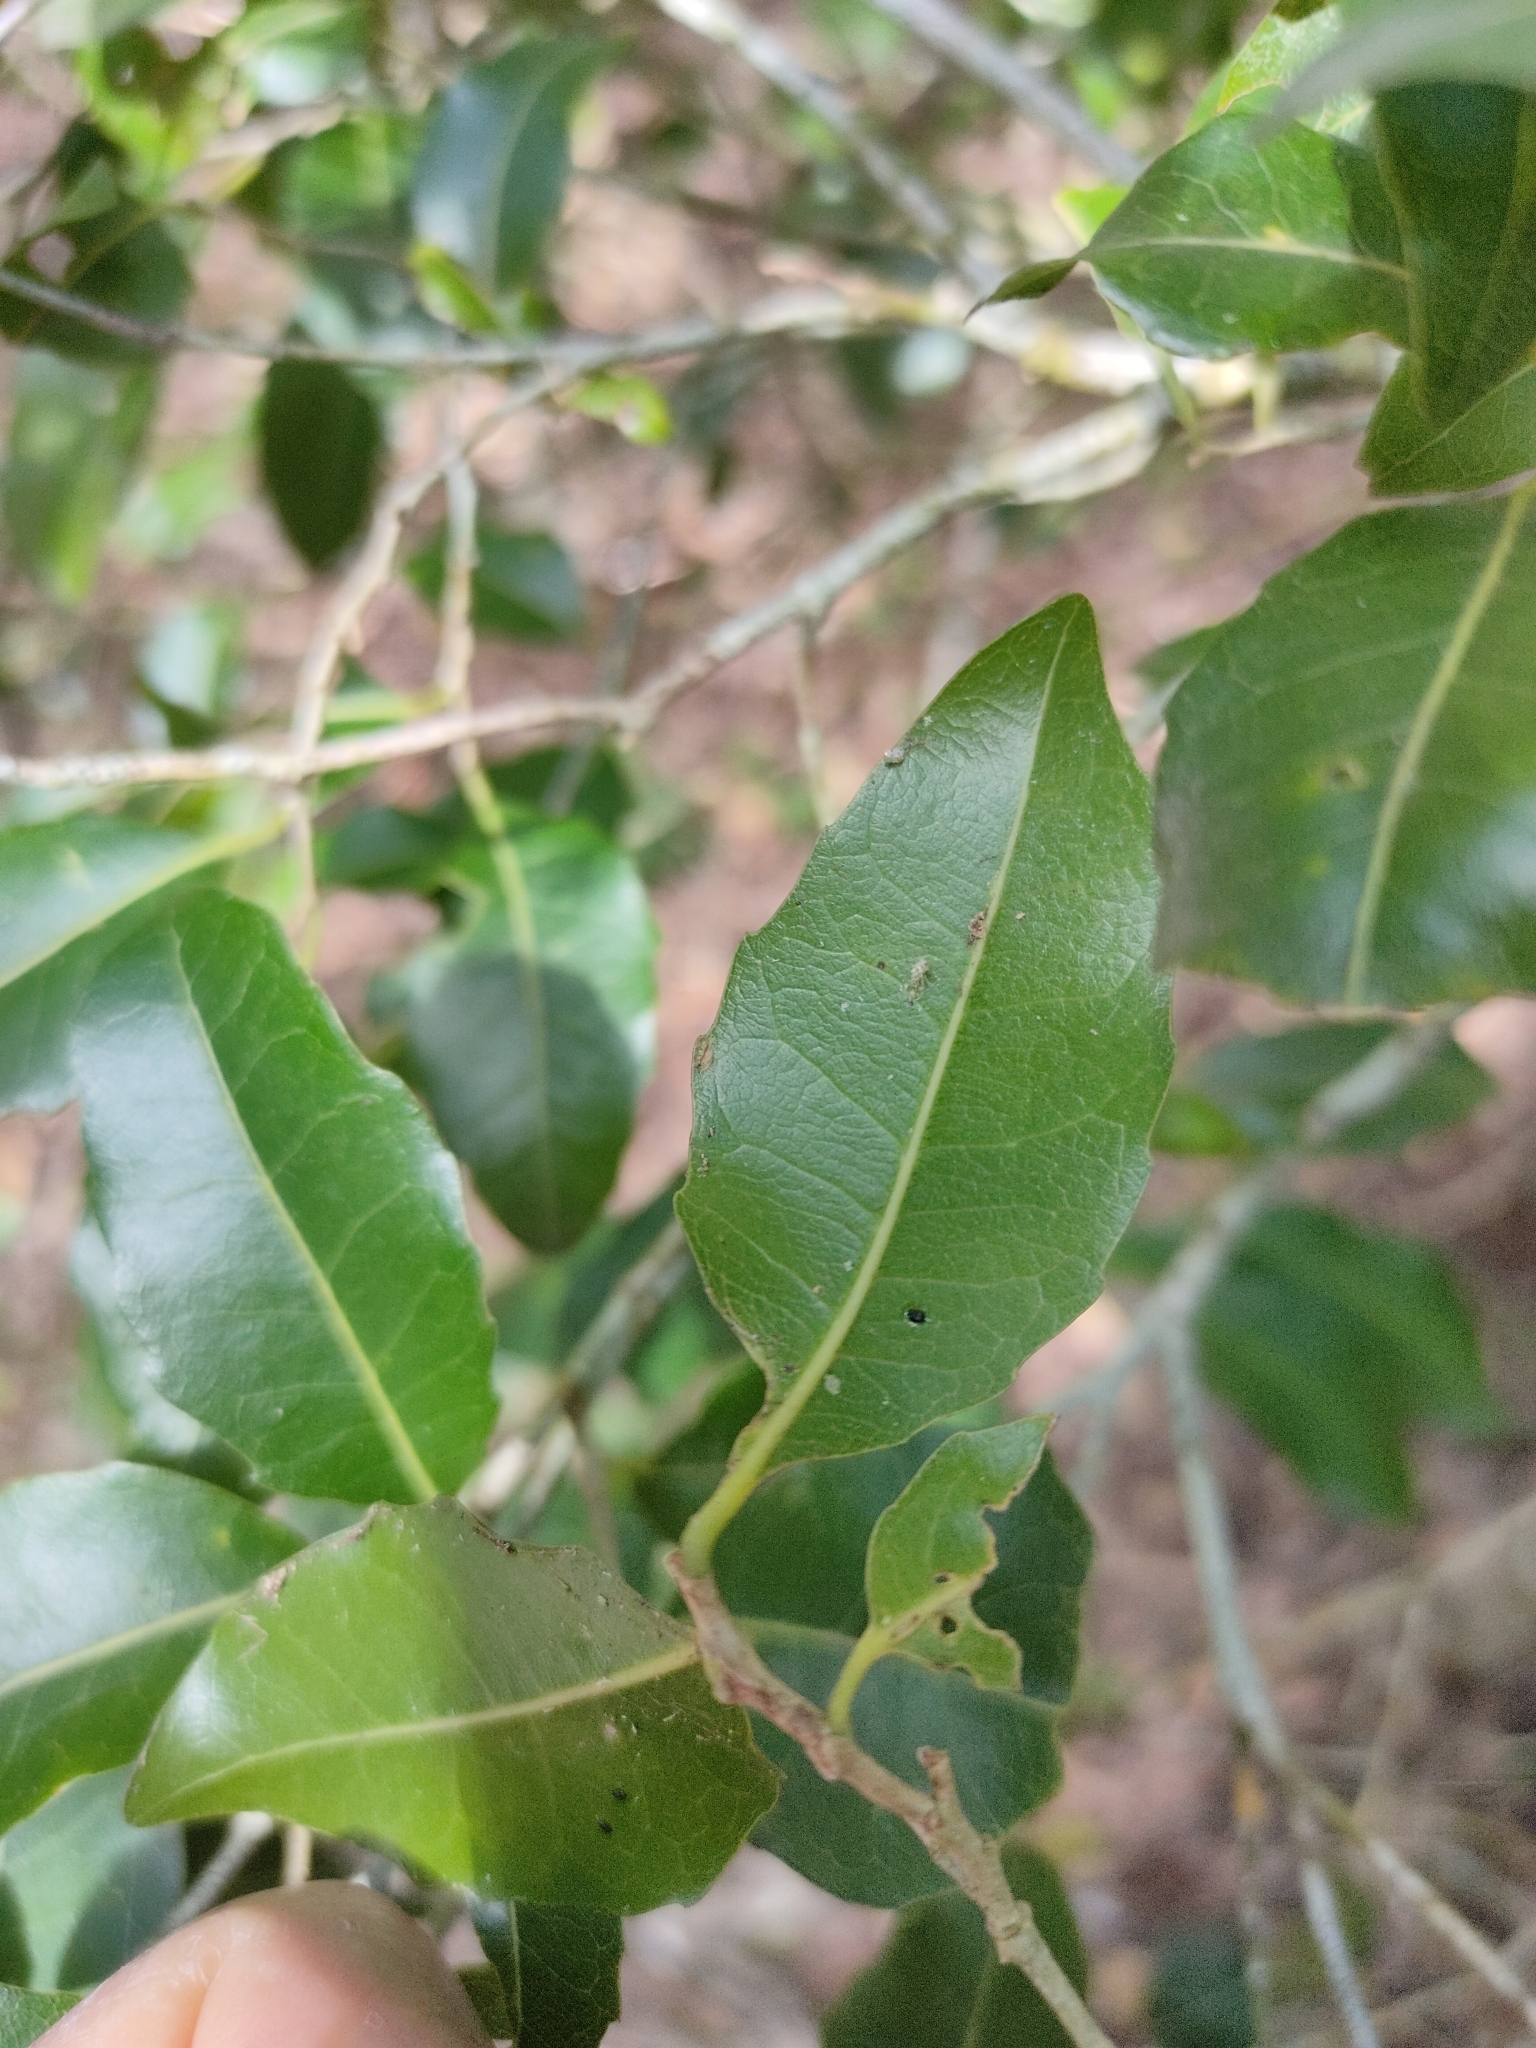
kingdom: Plantae
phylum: Tracheophyta
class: Magnoliopsida
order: Malpighiales
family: Putranjivaceae
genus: Drypetes
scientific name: Drypetes deplanchei
